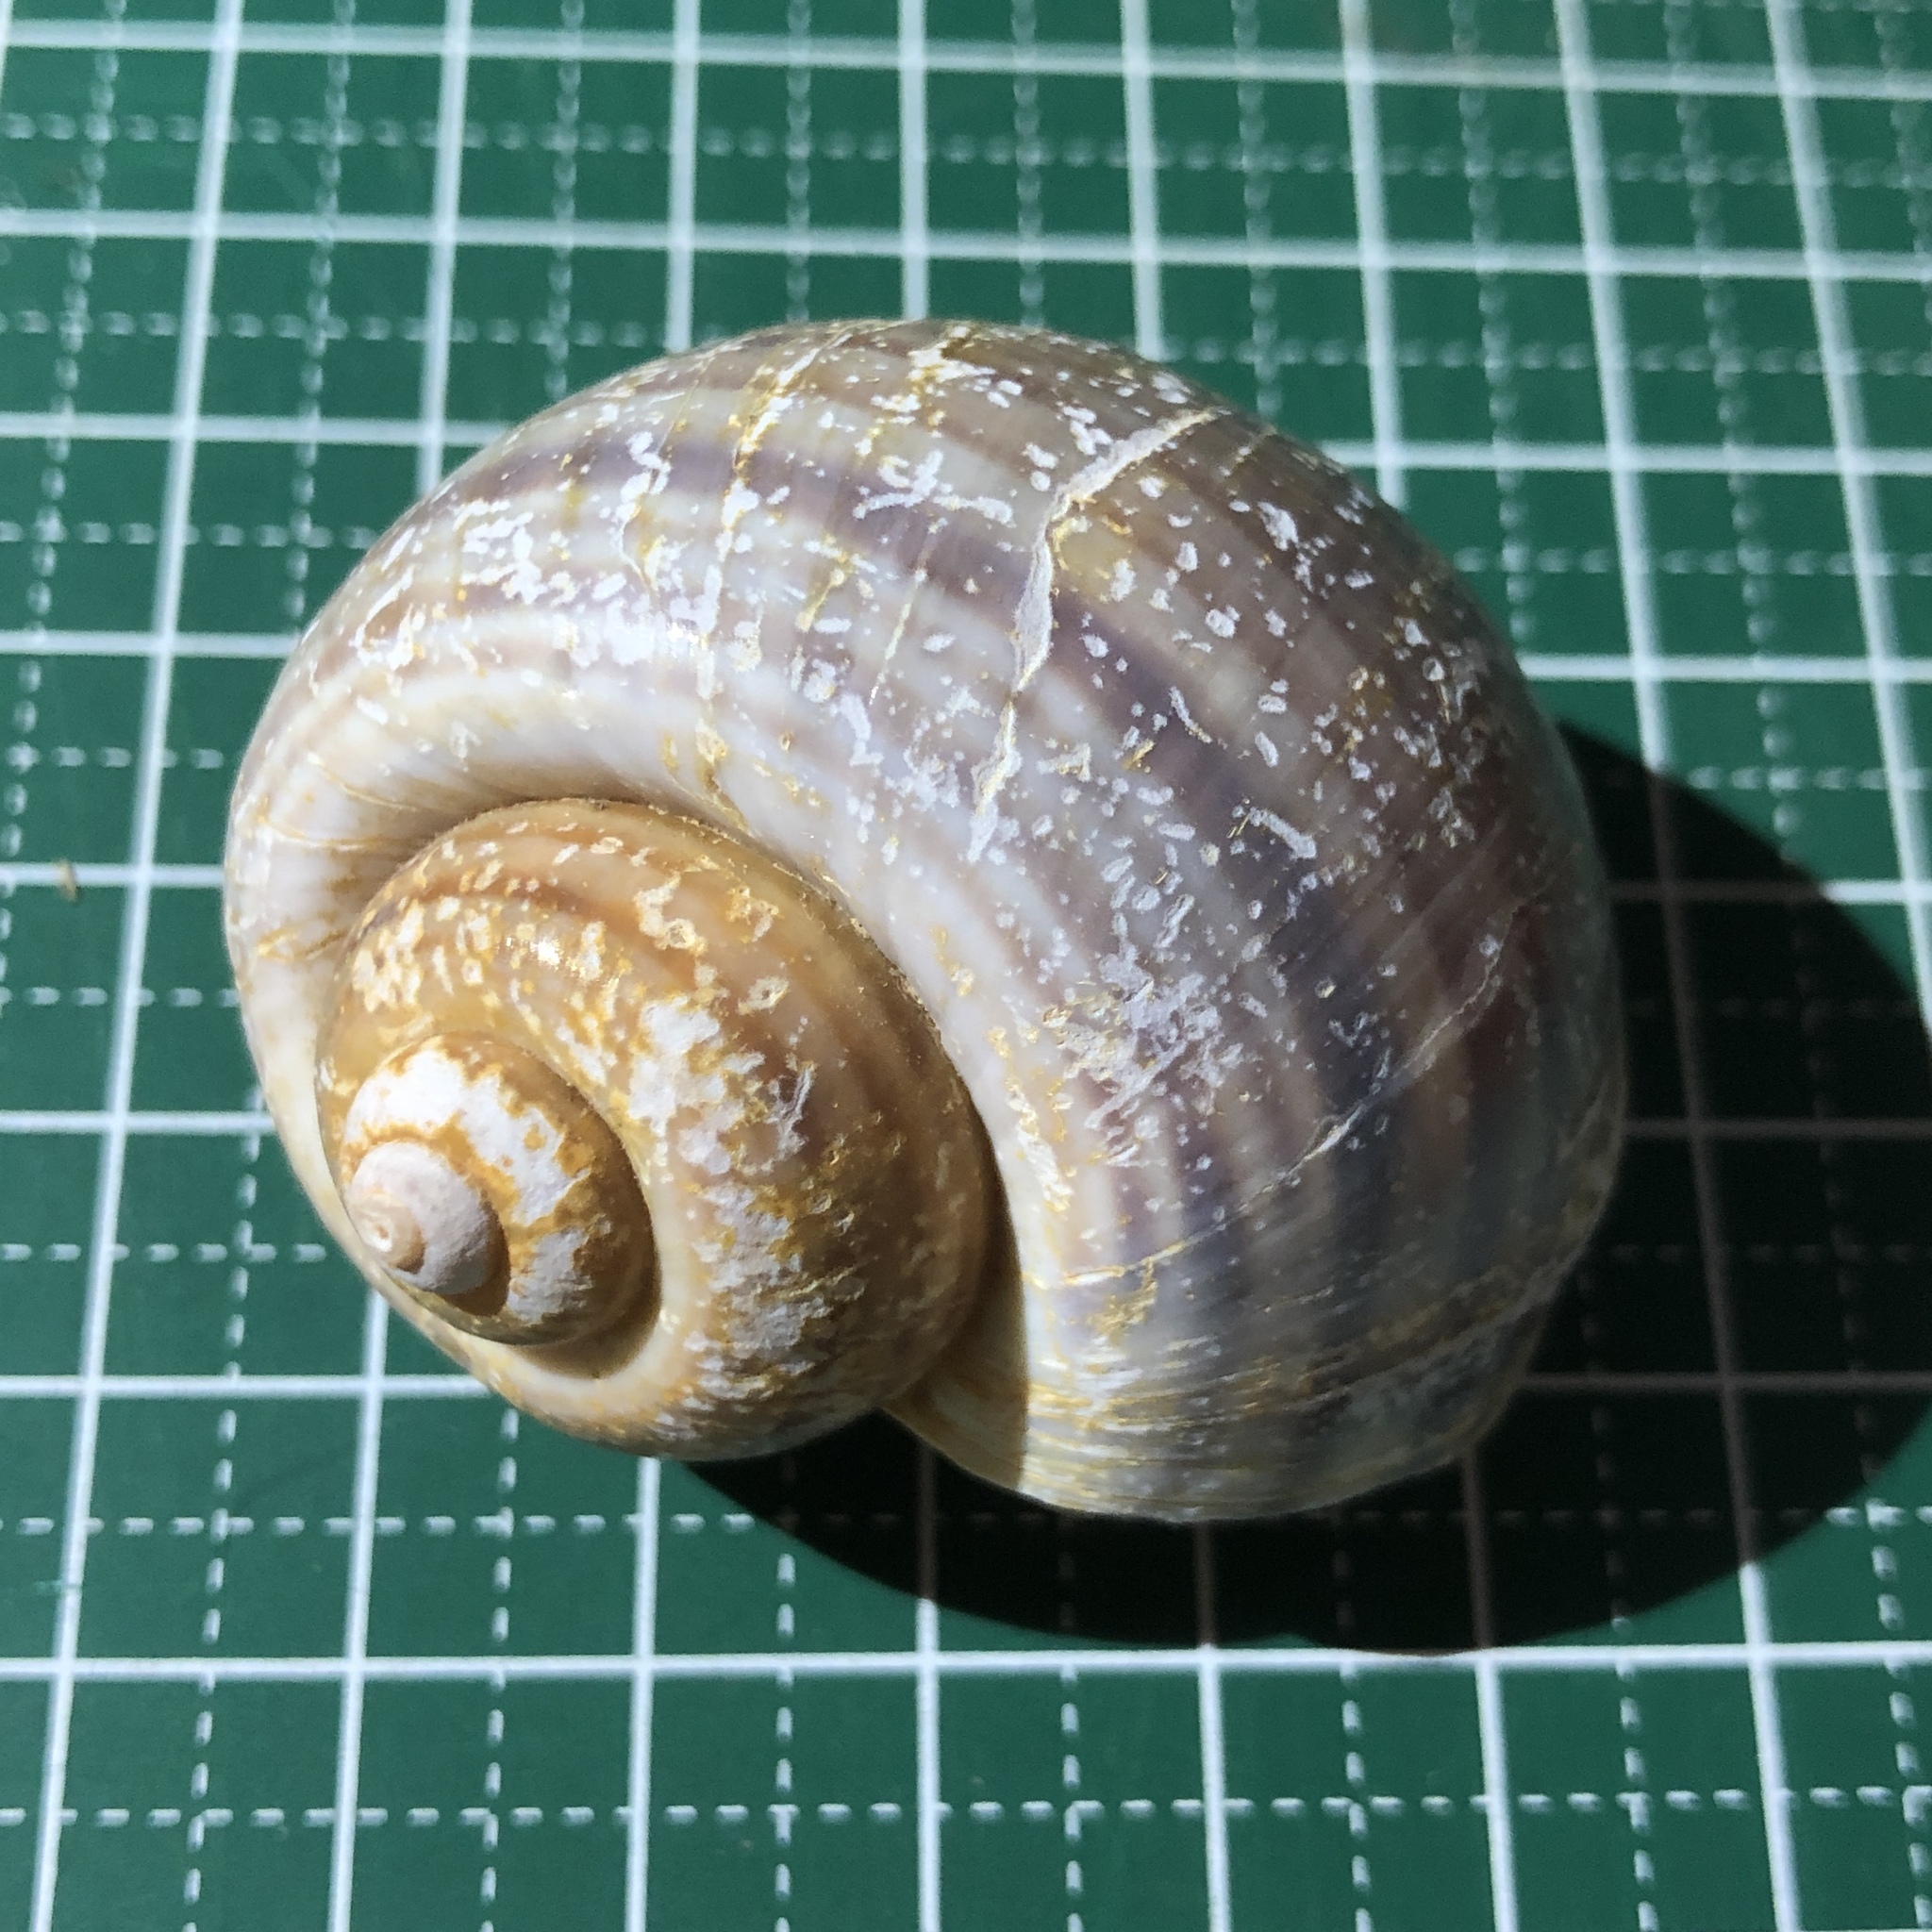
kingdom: Animalia
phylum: Mollusca
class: Gastropoda
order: Architaenioglossa
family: Ampullariidae
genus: Pomacea
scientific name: Pomacea canaliculata
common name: Channeled applesnail
